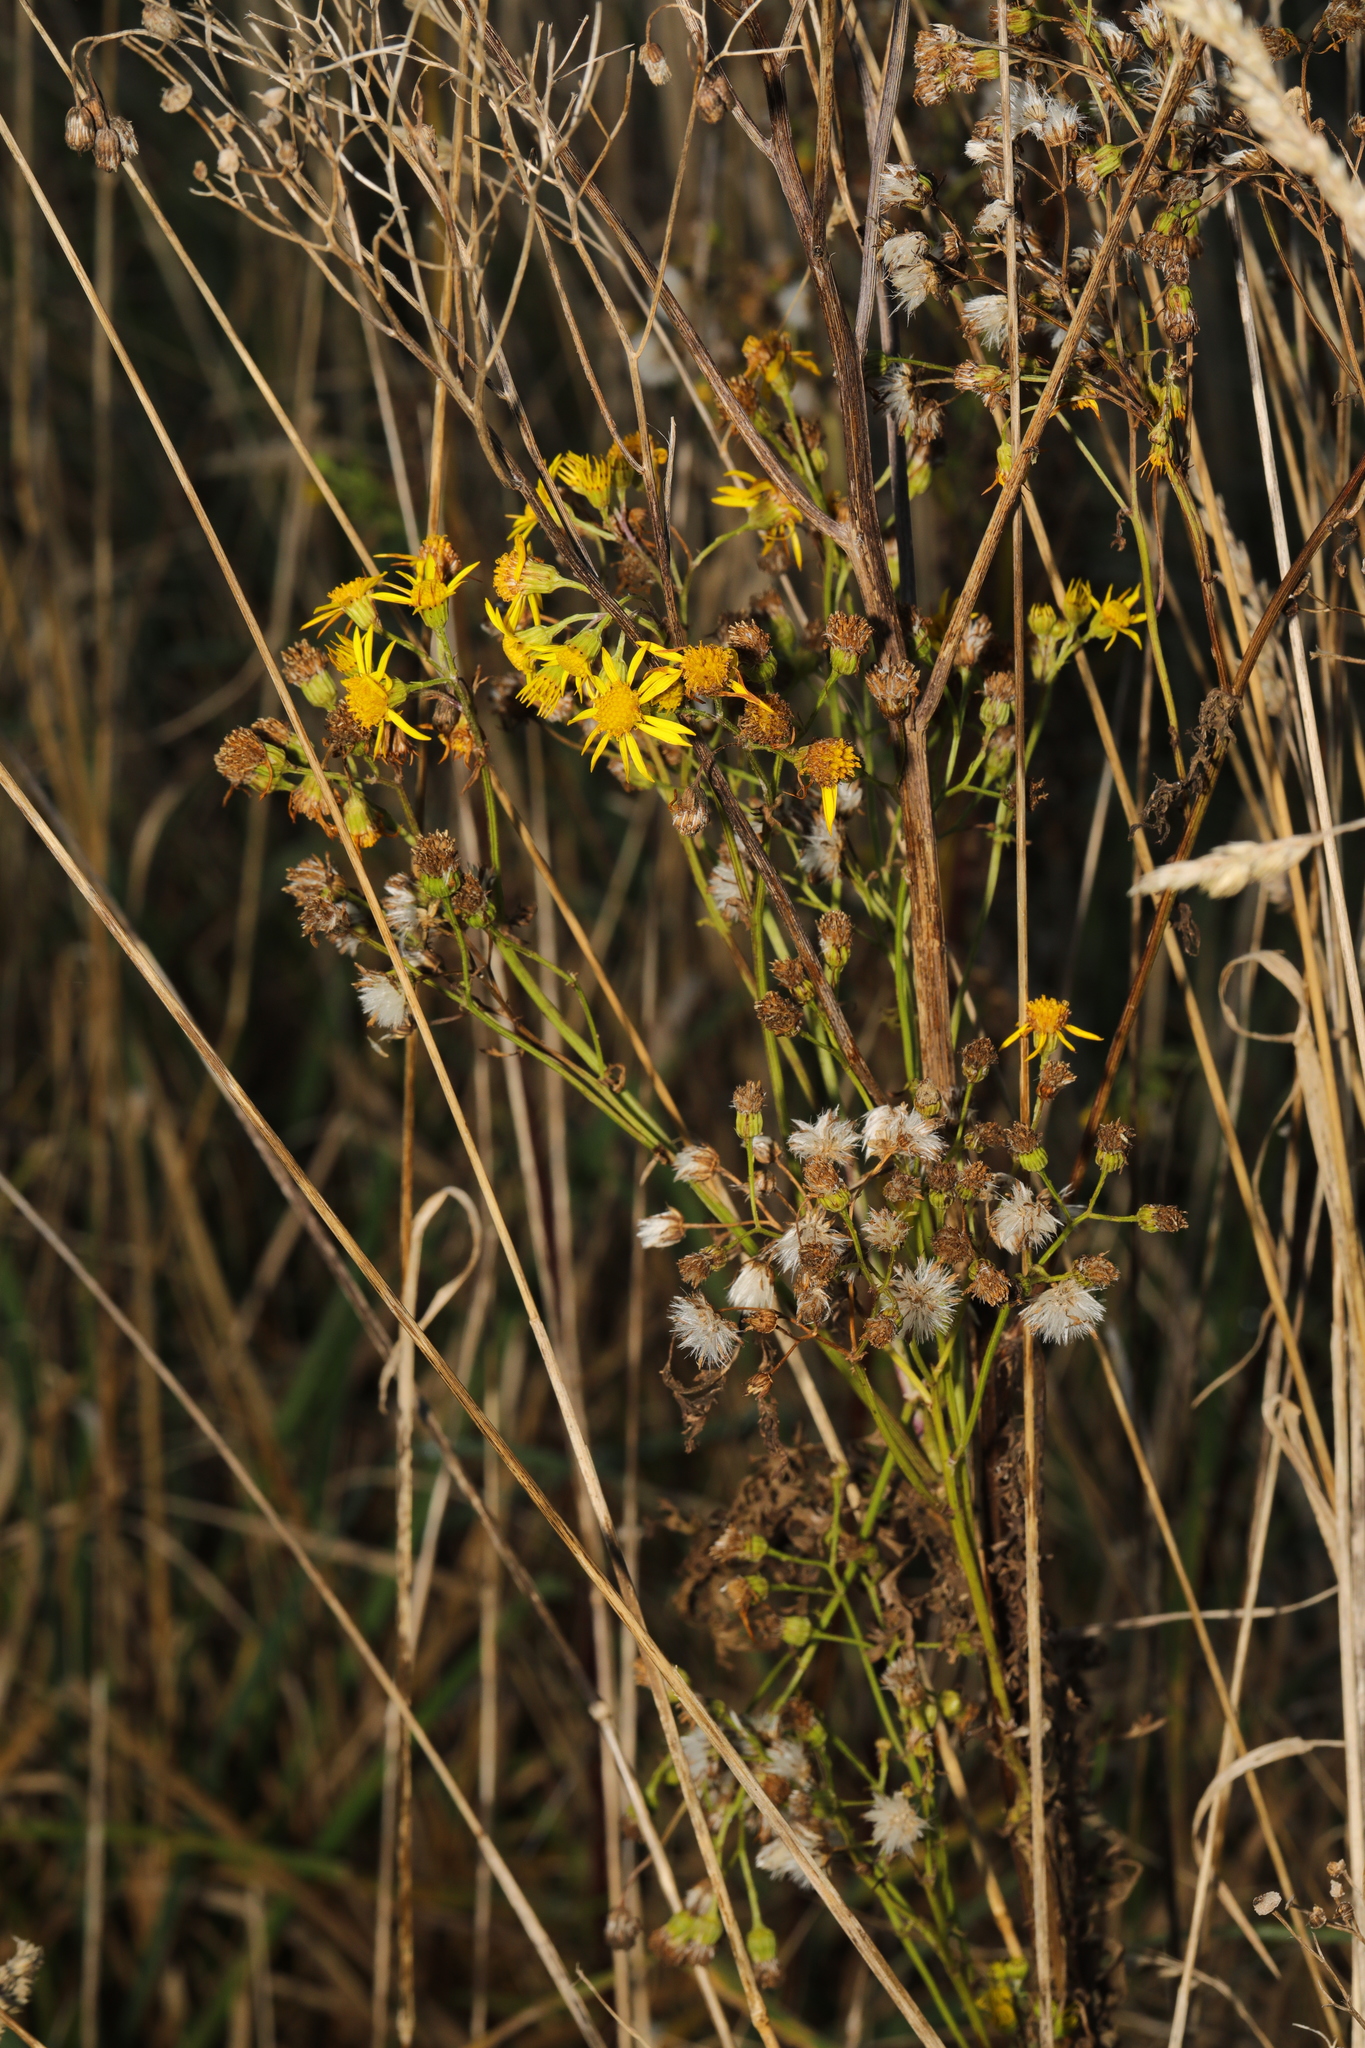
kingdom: Plantae
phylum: Tracheophyta
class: Magnoliopsida
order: Asterales
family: Asteraceae
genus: Jacobaea
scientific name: Jacobaea vulgaris
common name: Stinking willie
